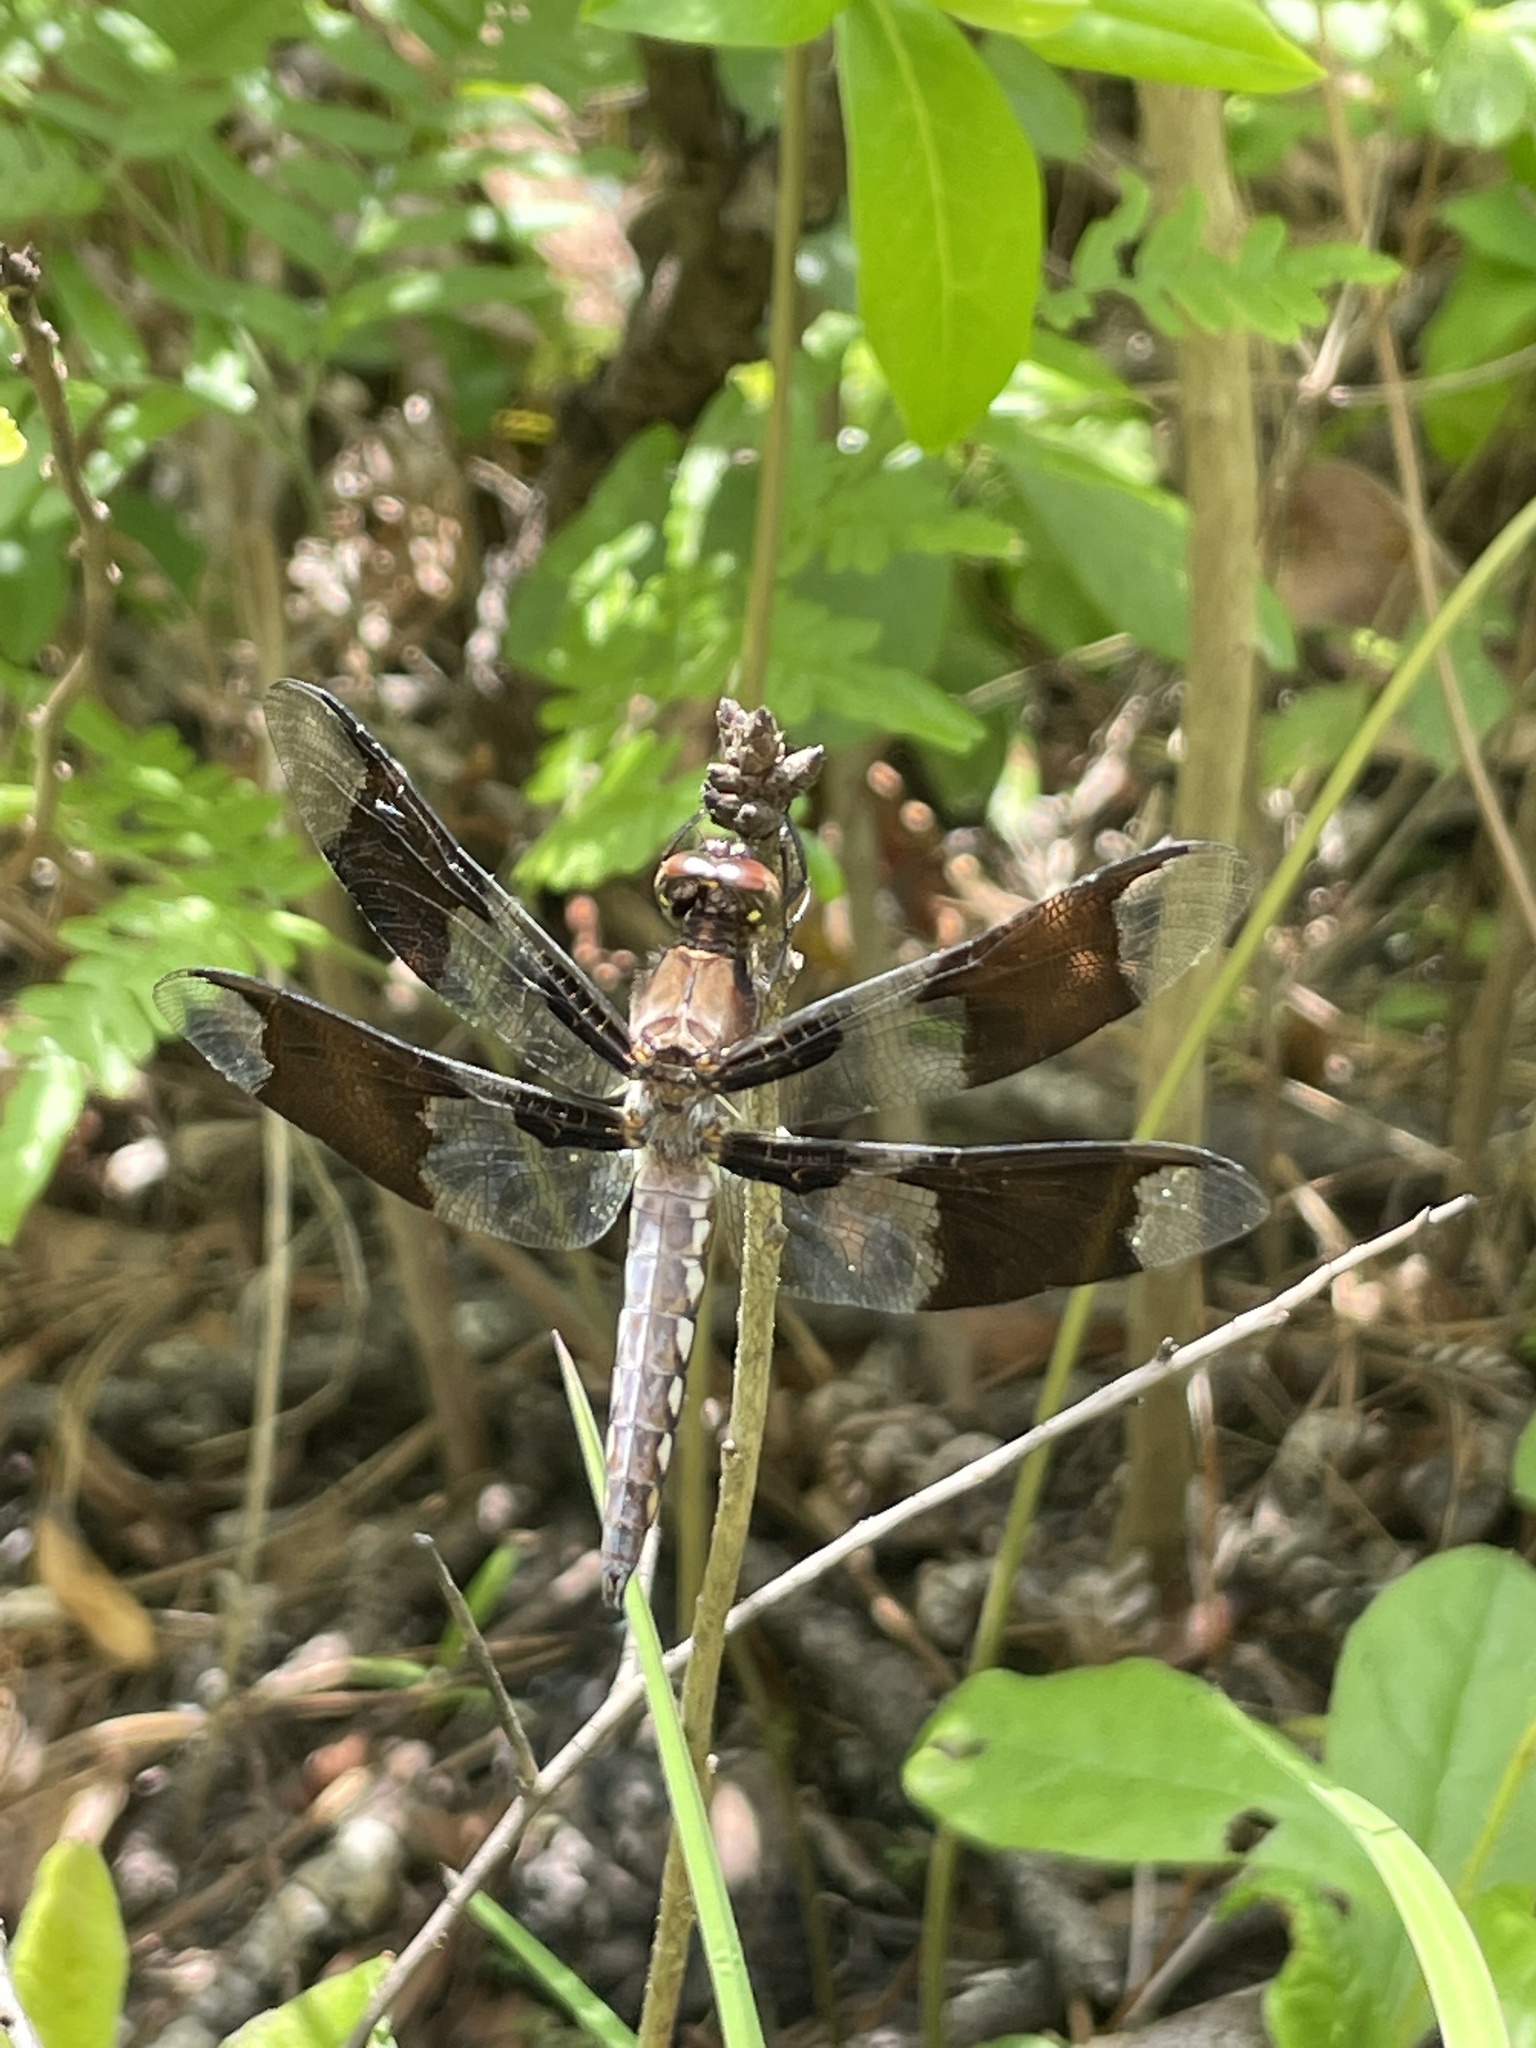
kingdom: Animalia
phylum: Arthropoda
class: Insecta
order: Odonata
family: Libellulidae
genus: Plathemis
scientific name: Plathemis lydia
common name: Common whitetail
